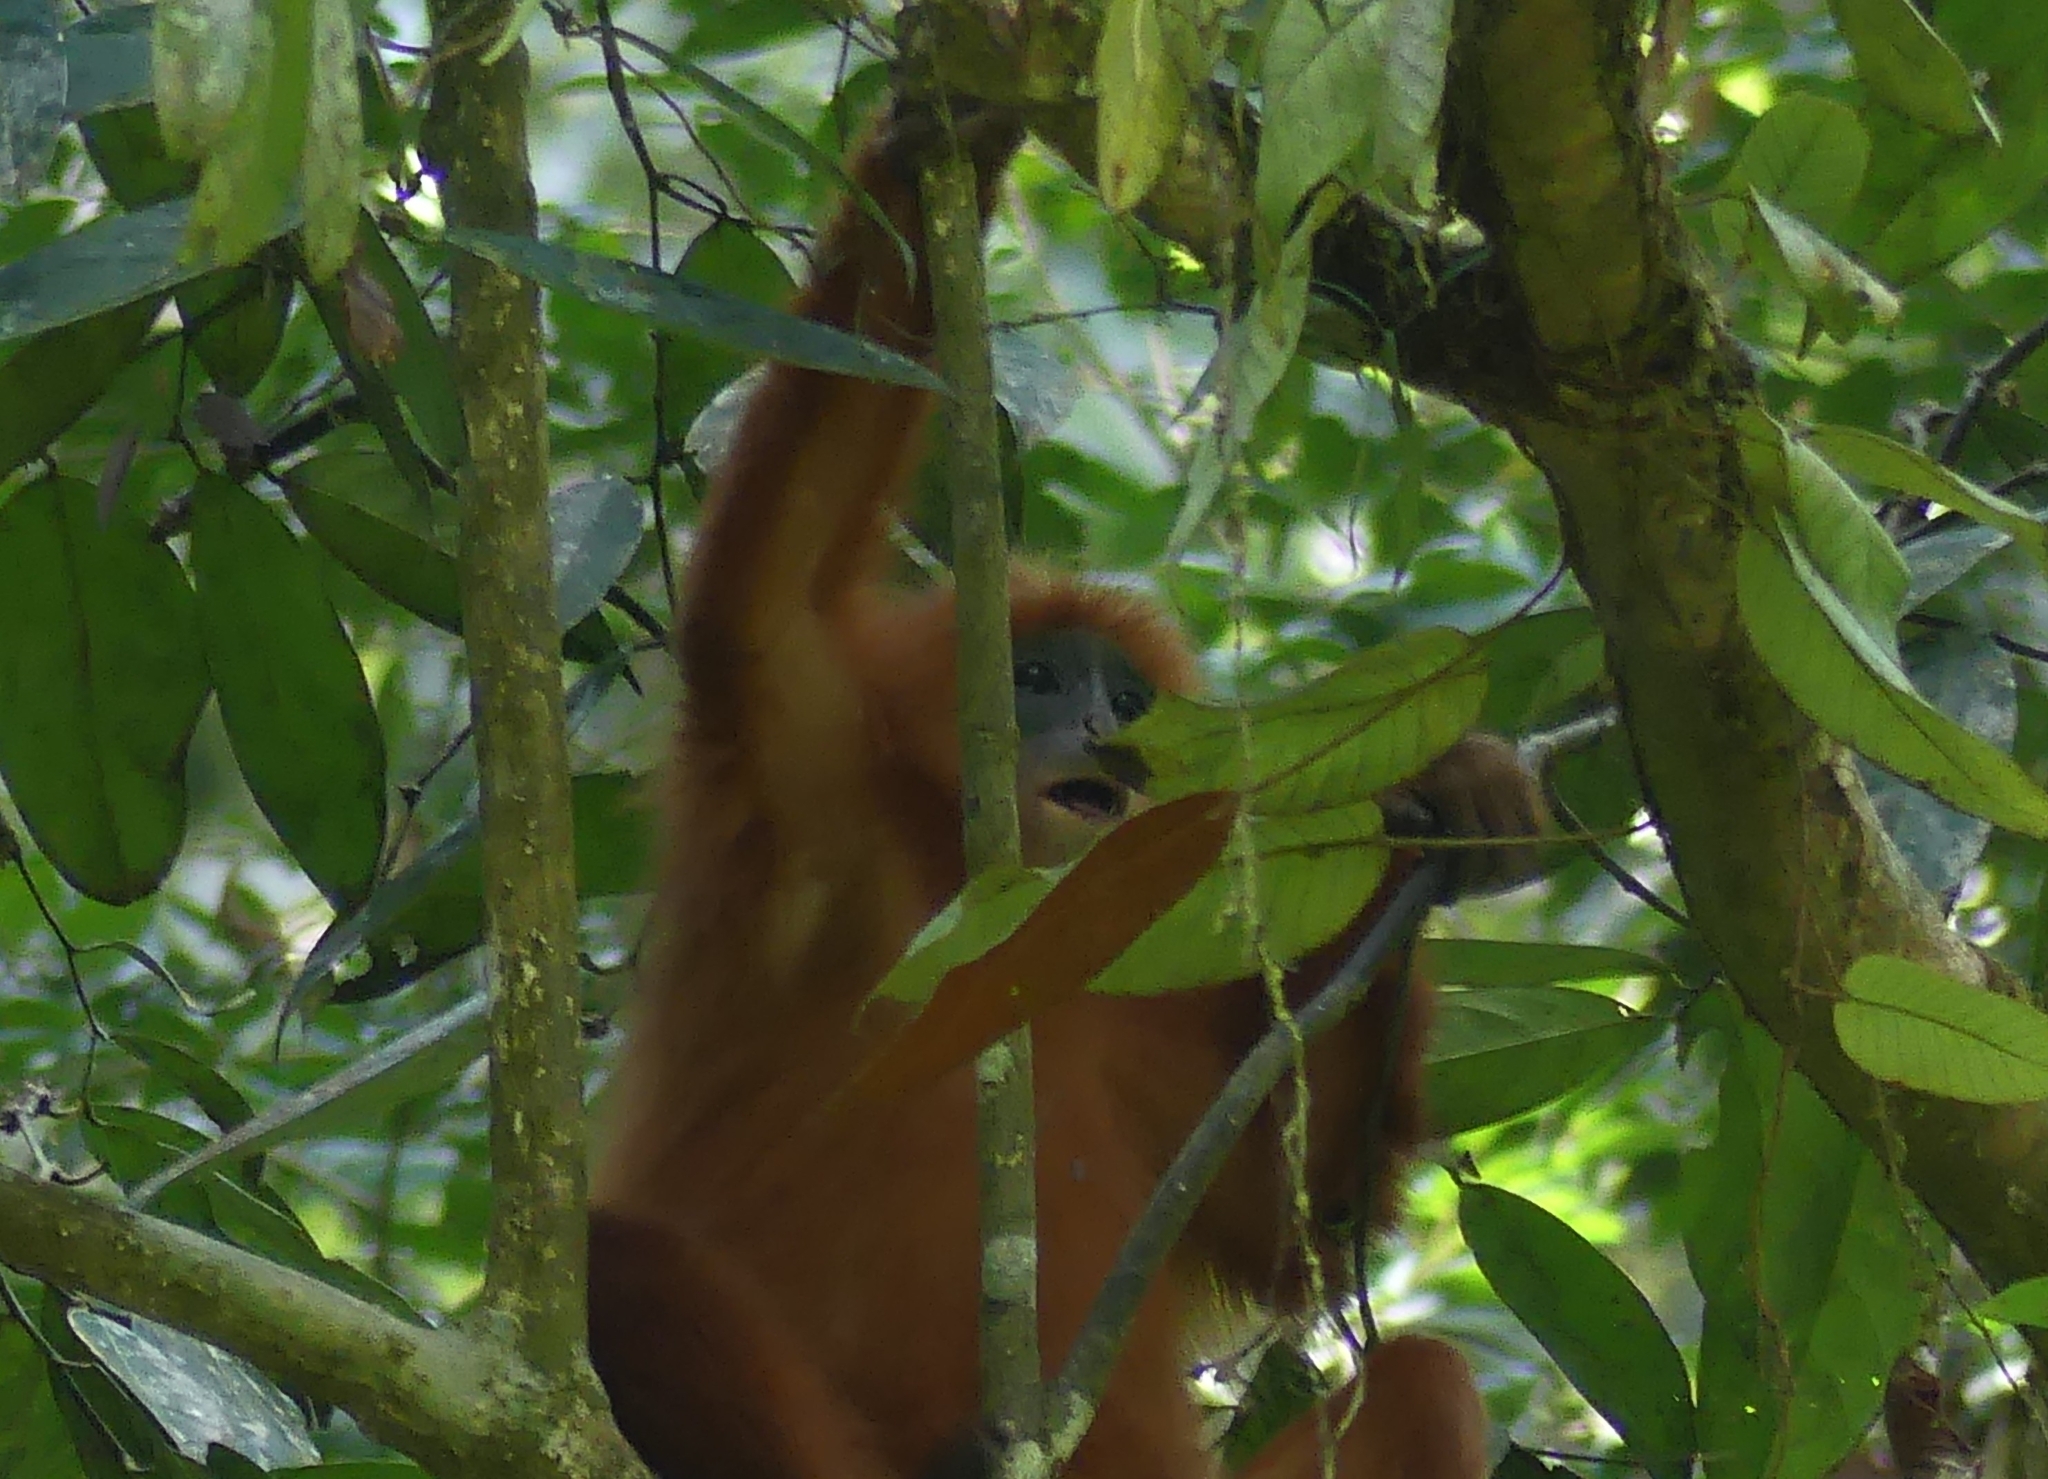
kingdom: Animalia
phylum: Chordata
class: Mammalia
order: Primates
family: Cercopithecidae
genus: Presbytis
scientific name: Presbytis rubicunda
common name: Maroon leaf monkey
